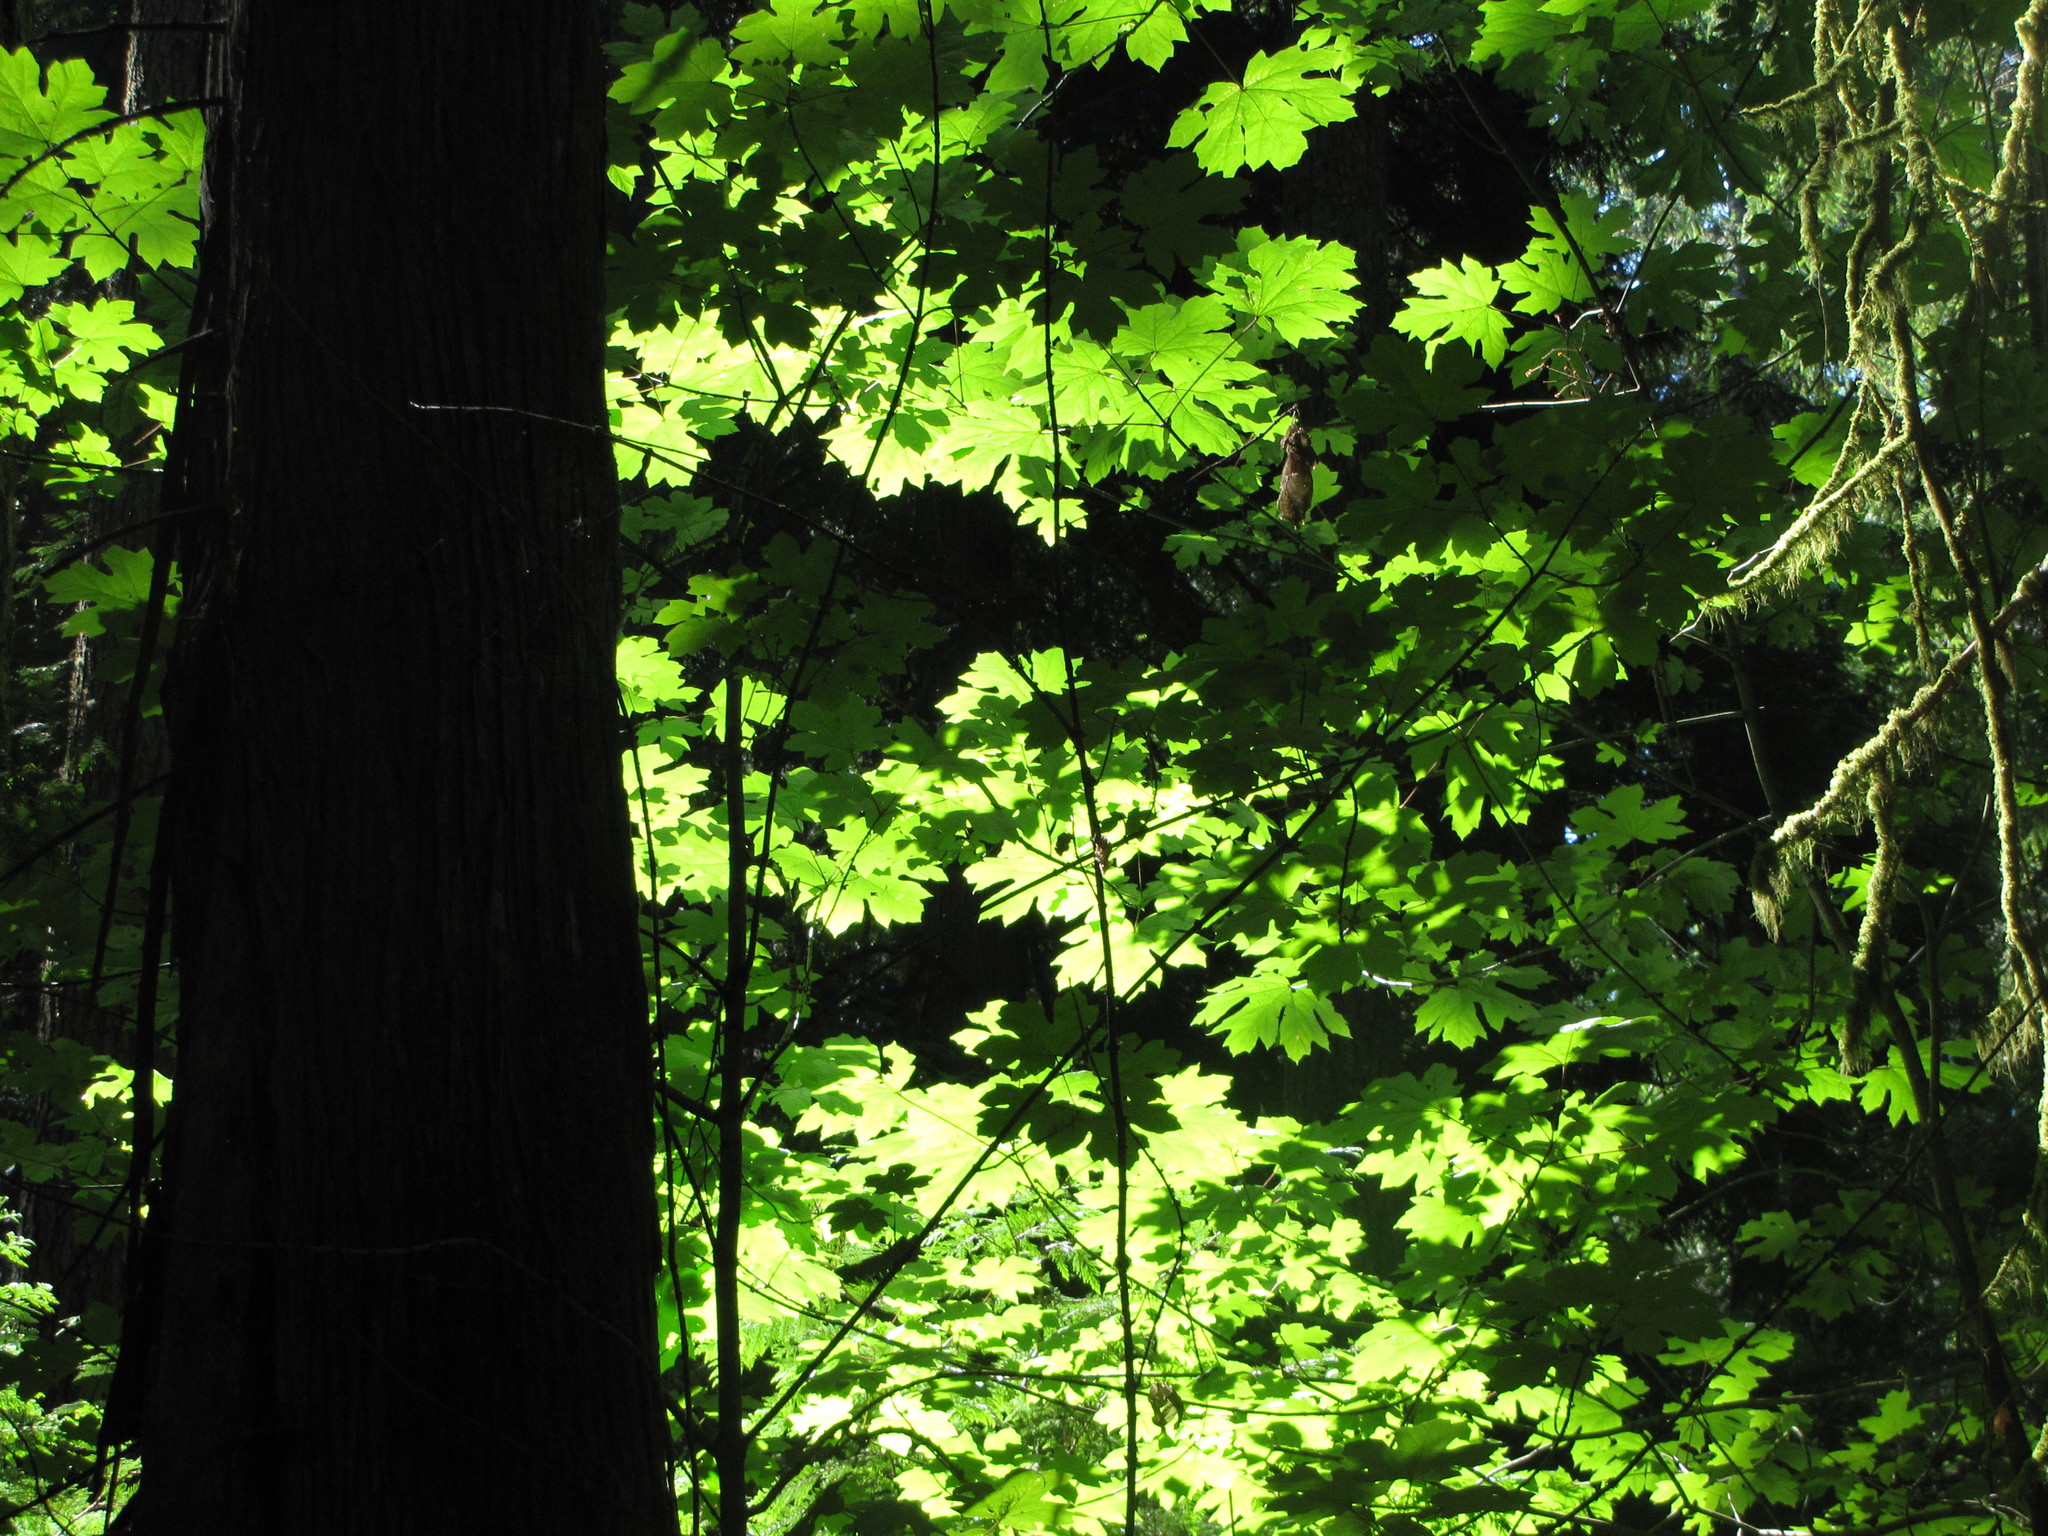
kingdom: Plantae
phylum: Tracheophyta
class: Magnoliopsida
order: Sapindales
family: Sapindaceae
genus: Acer
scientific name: Acer macrophyllum
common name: Oregon maple
